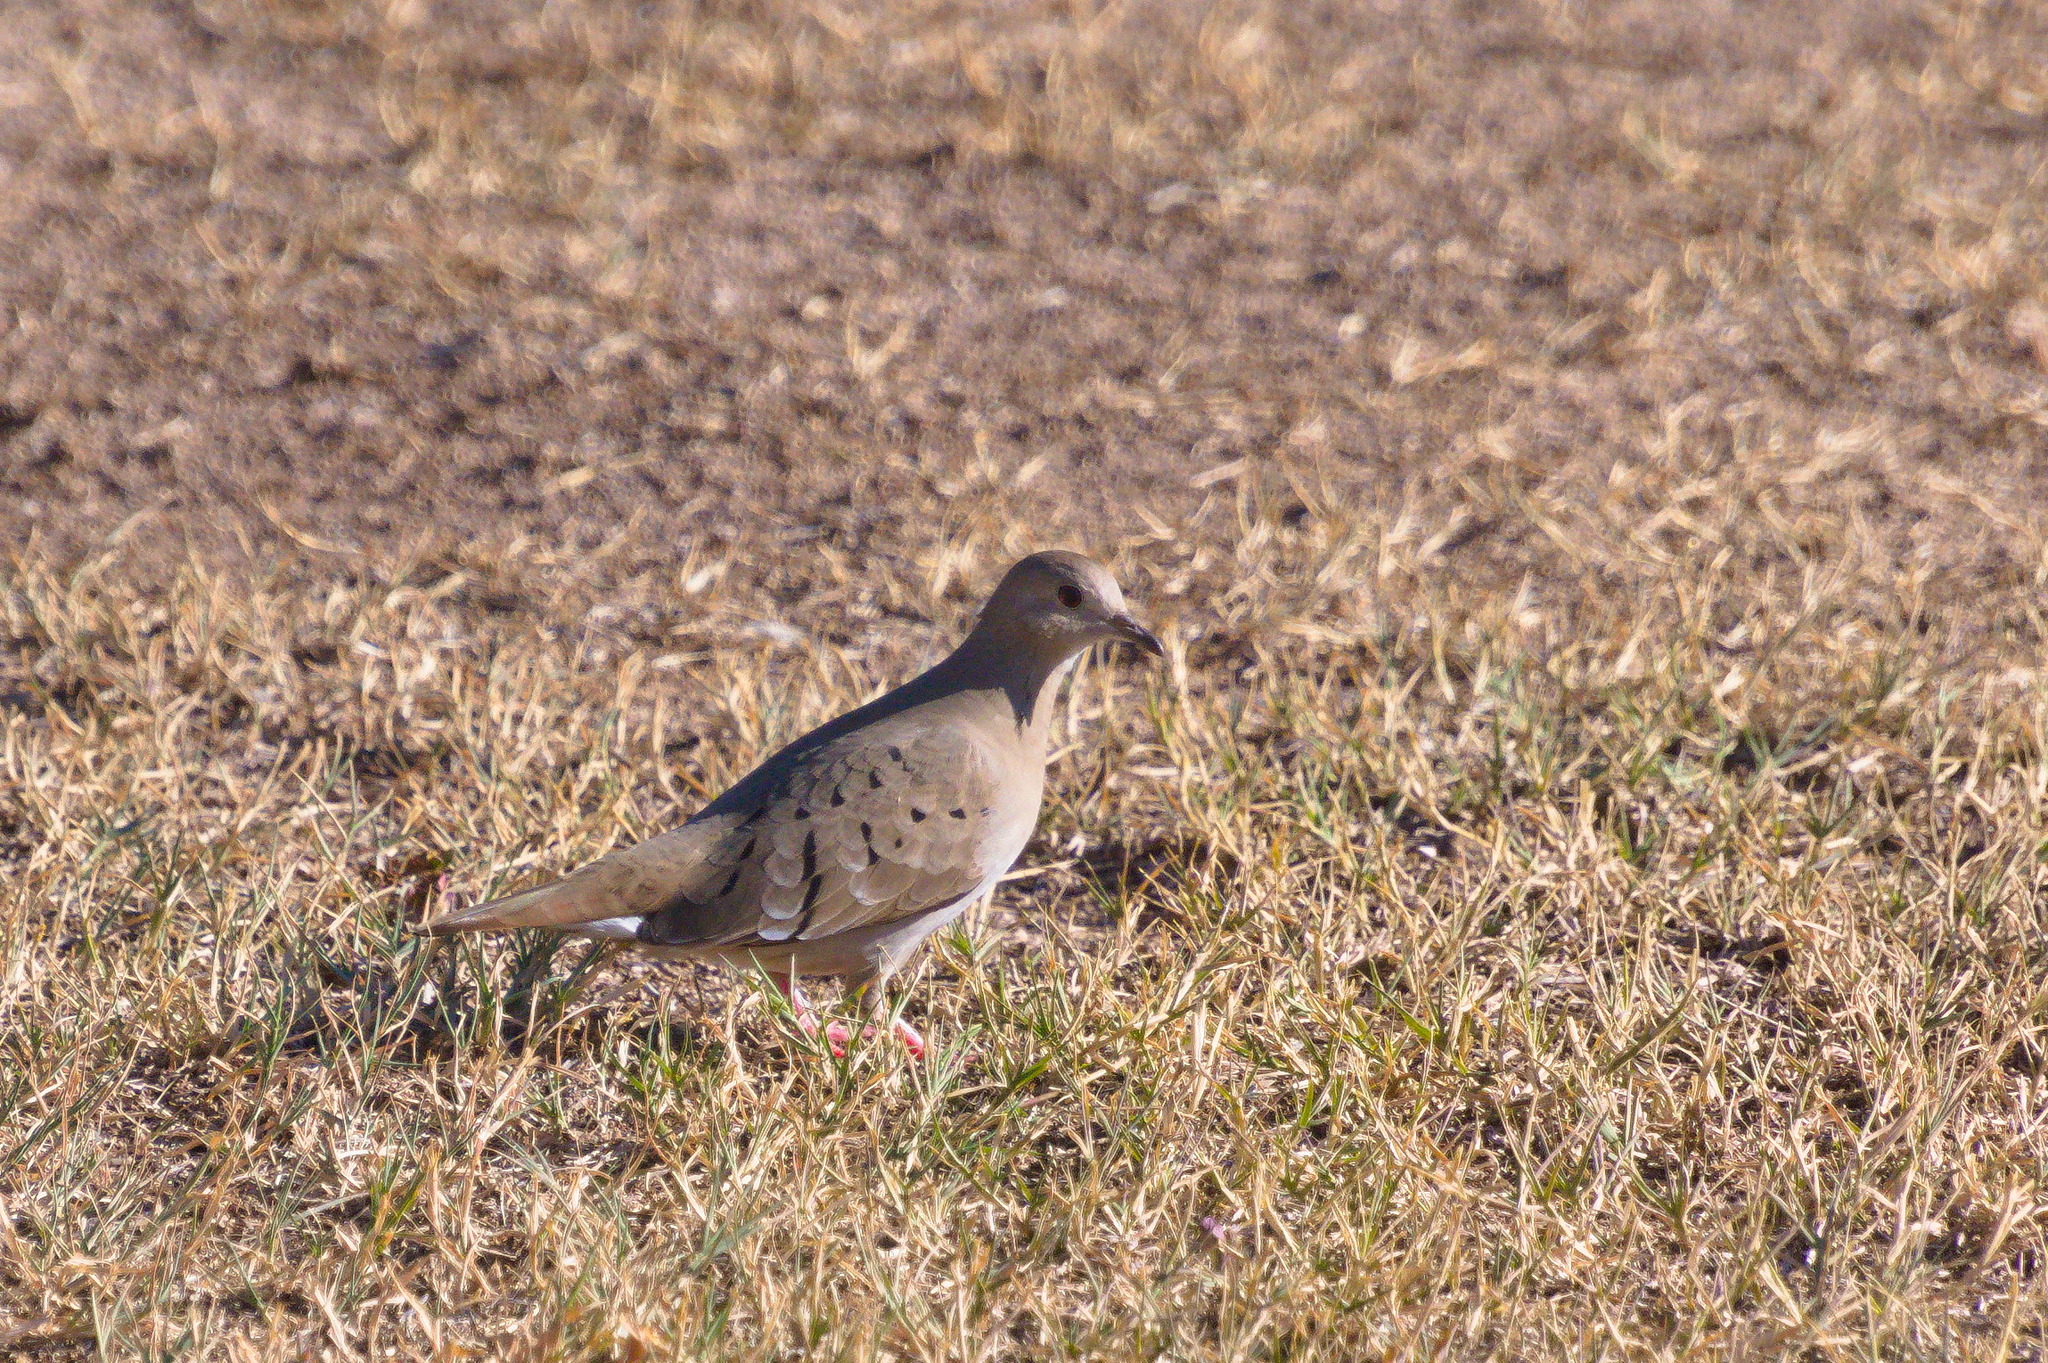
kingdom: Animalia
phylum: Chordata
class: Aves
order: Columbiformes
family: Columbidae
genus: Columbina
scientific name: Columbina talpacoti
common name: Ruddy ground dove
